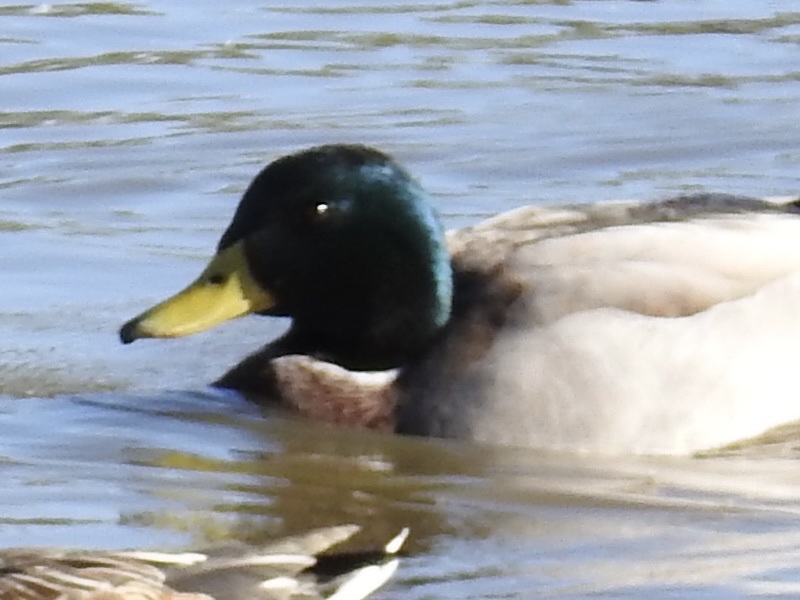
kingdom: Animalia
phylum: Chordata
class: Aves
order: Anseriformes
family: Anatidae
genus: Anas
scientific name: Anas platyrhynchos
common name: Mallard
